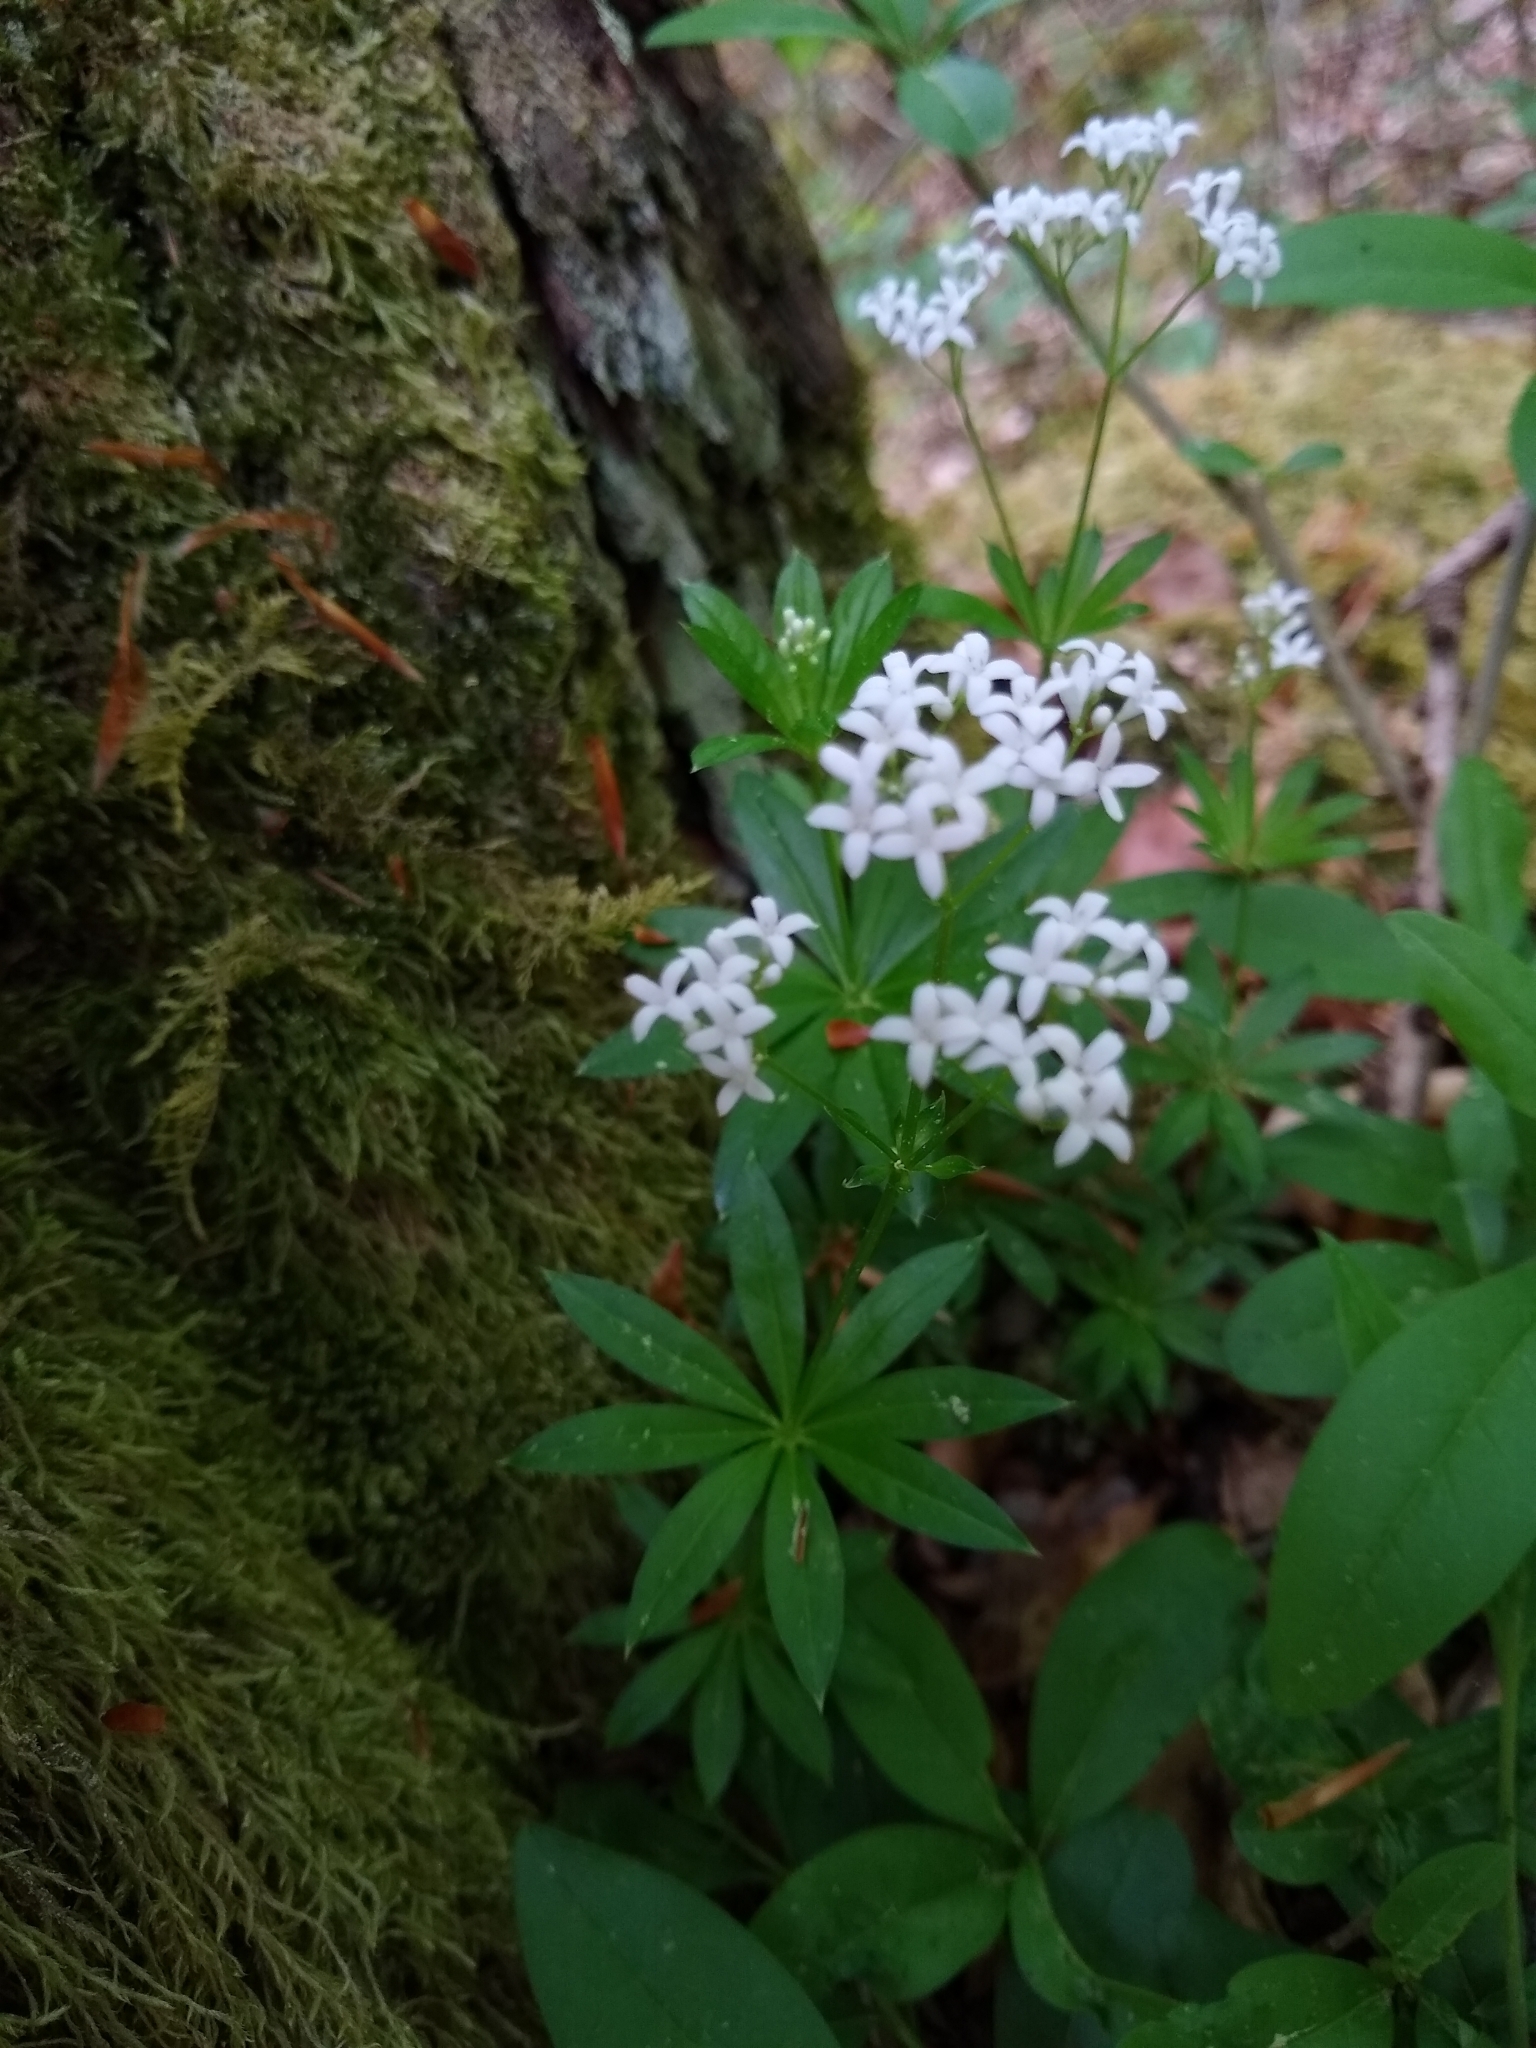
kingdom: Plantae
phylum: Tracheophyta
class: Magnoliopsida
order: Gentianales
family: Rubiaceae
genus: Galium
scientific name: Galium odoratum
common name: Sweet woodruff
